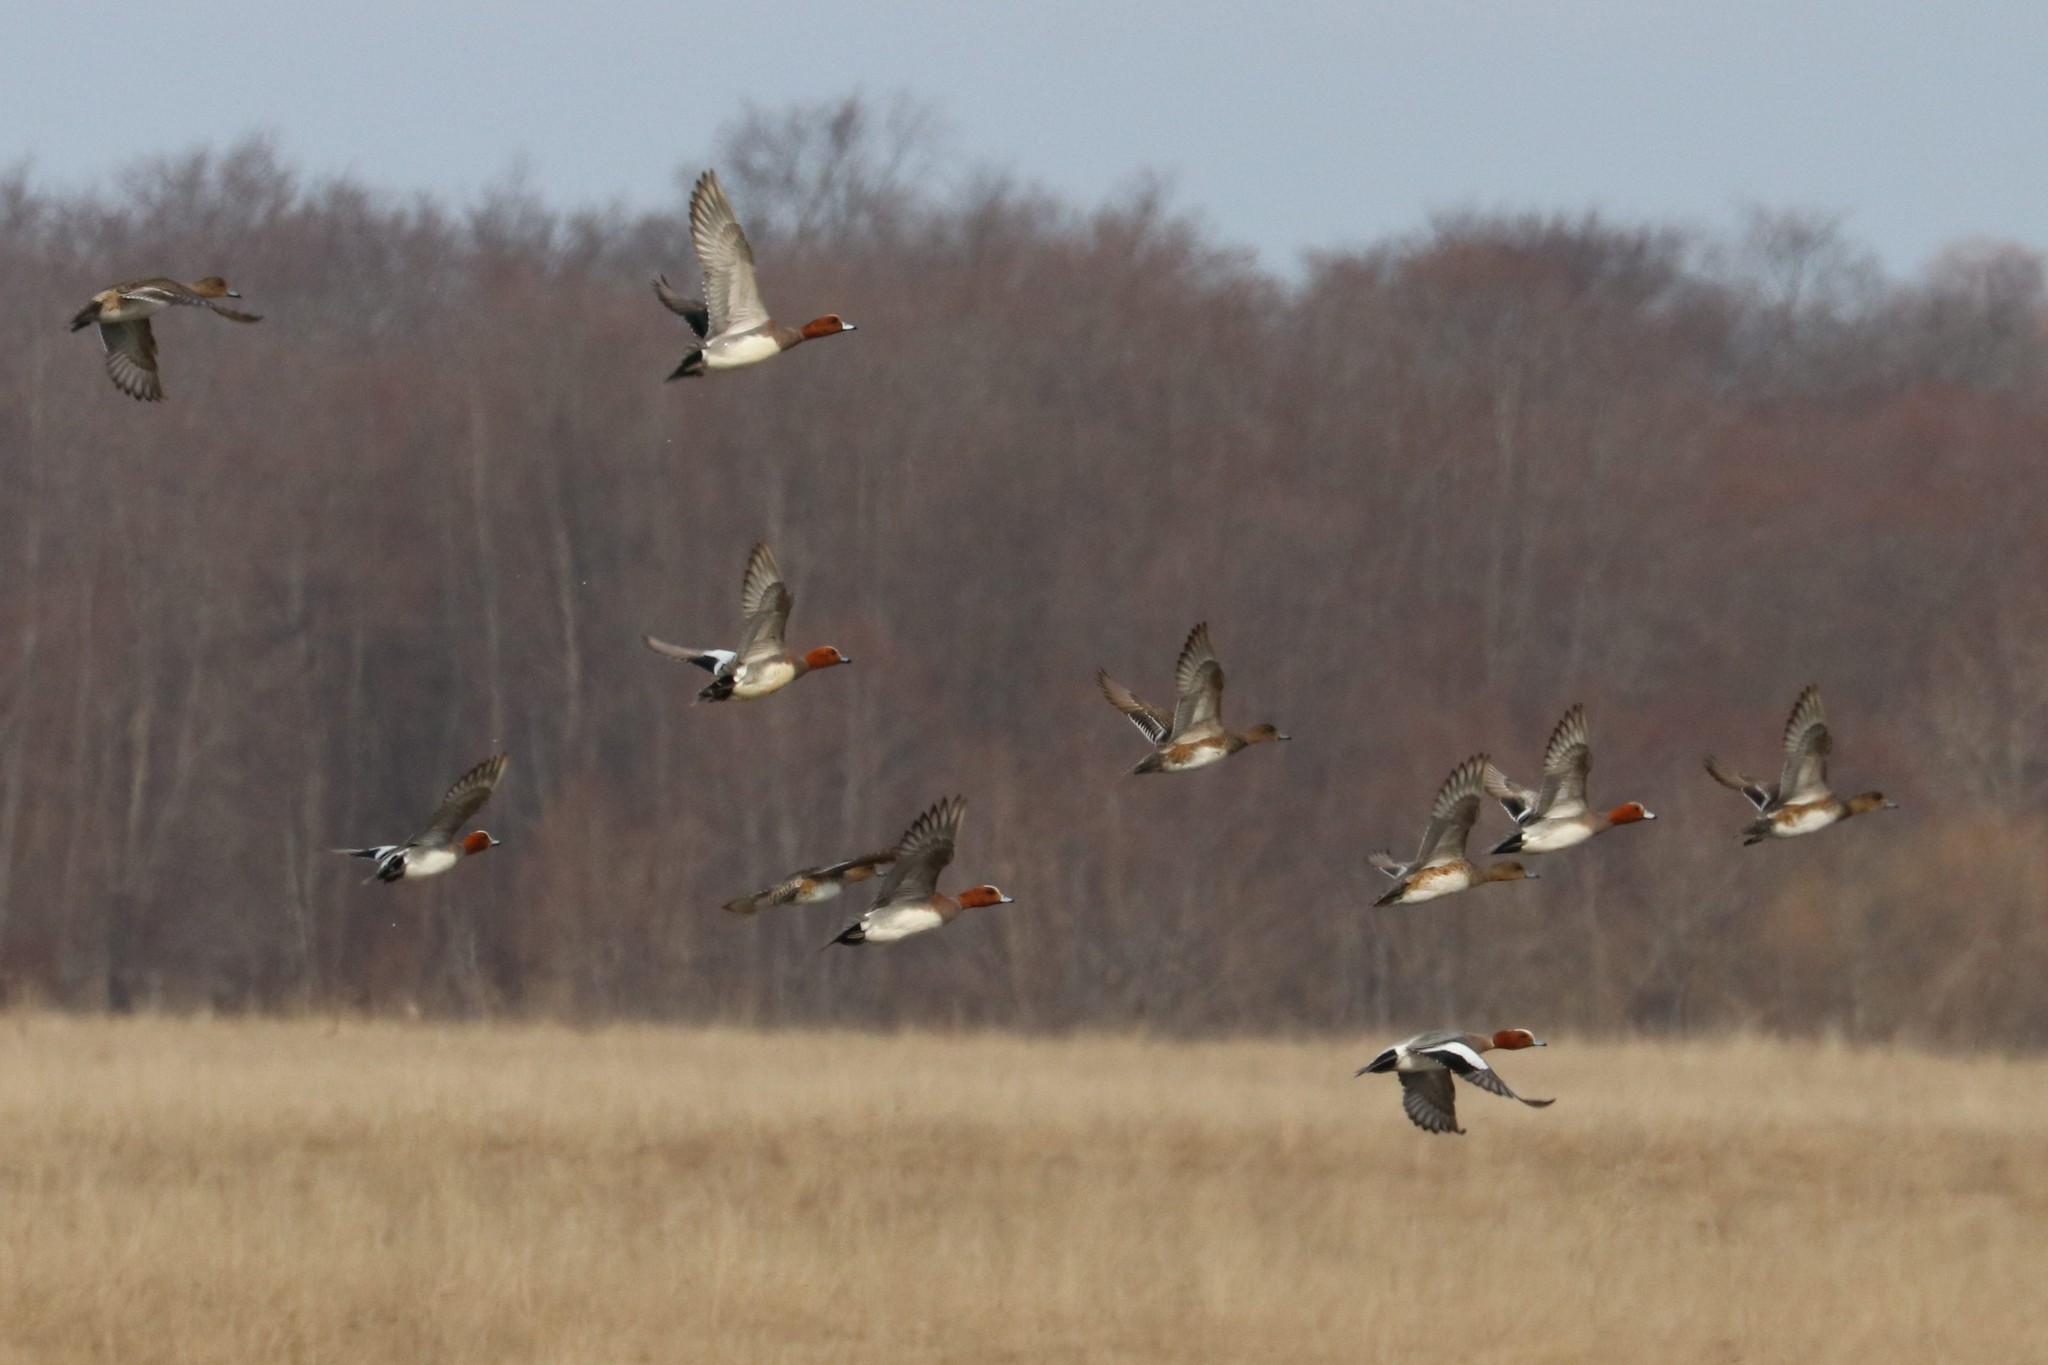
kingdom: Animalia
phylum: Chordata
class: Aves
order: Anseriformes
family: Anatidae
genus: Mareca
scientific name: Mareca penelope
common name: Eurasian wigeon
